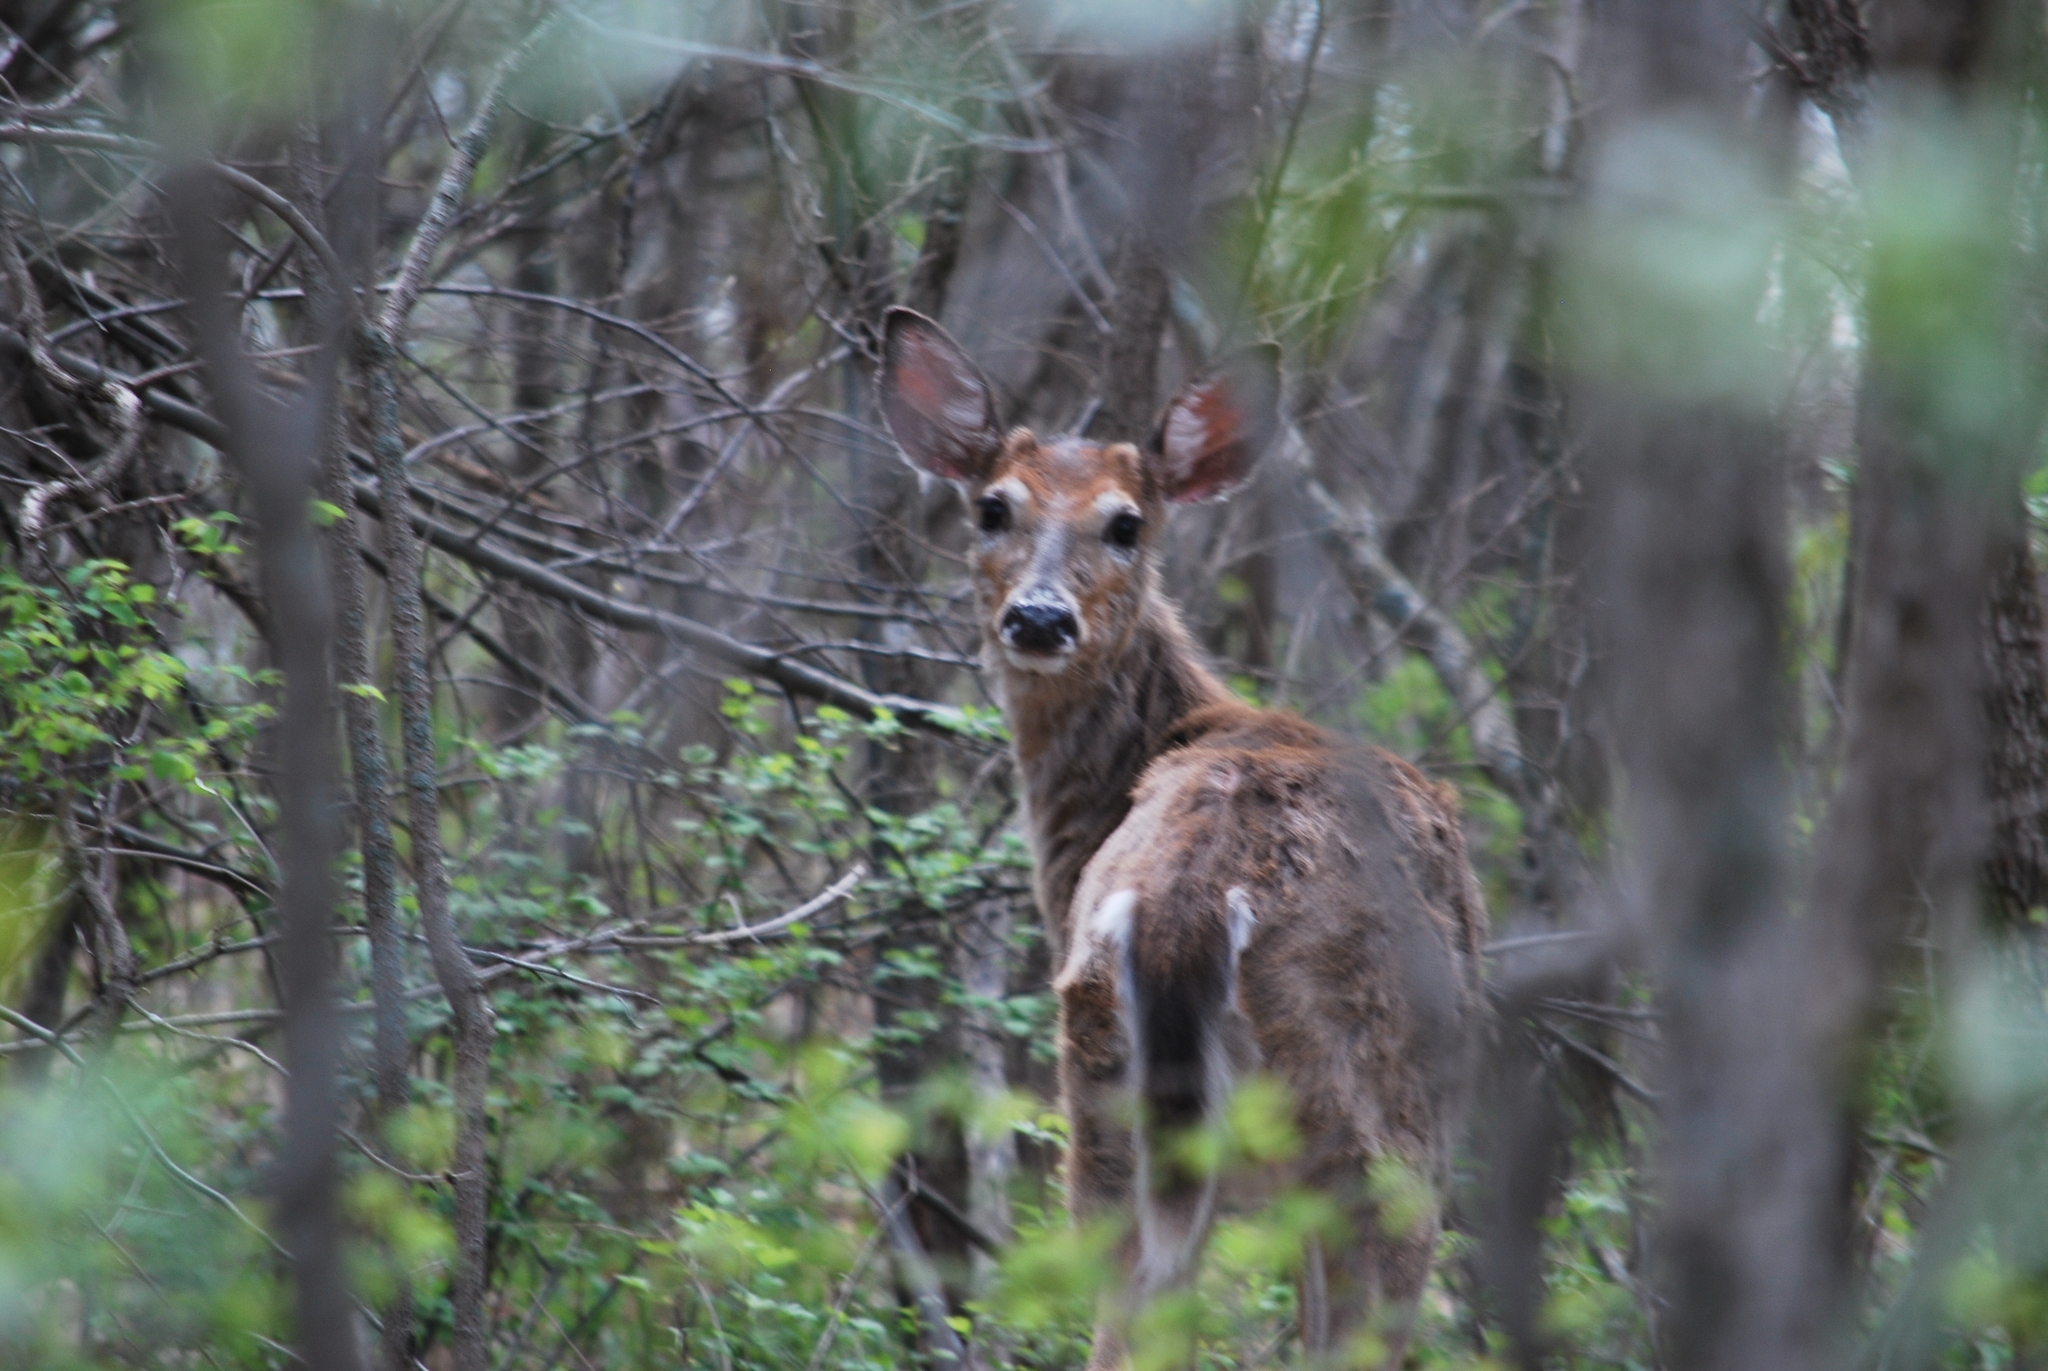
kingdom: Animalia
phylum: Chordata
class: Mammalia
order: Artiodactyla
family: Cervidae
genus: Odocoileus
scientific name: Odocoileus virginianus
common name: White-tailed deer
